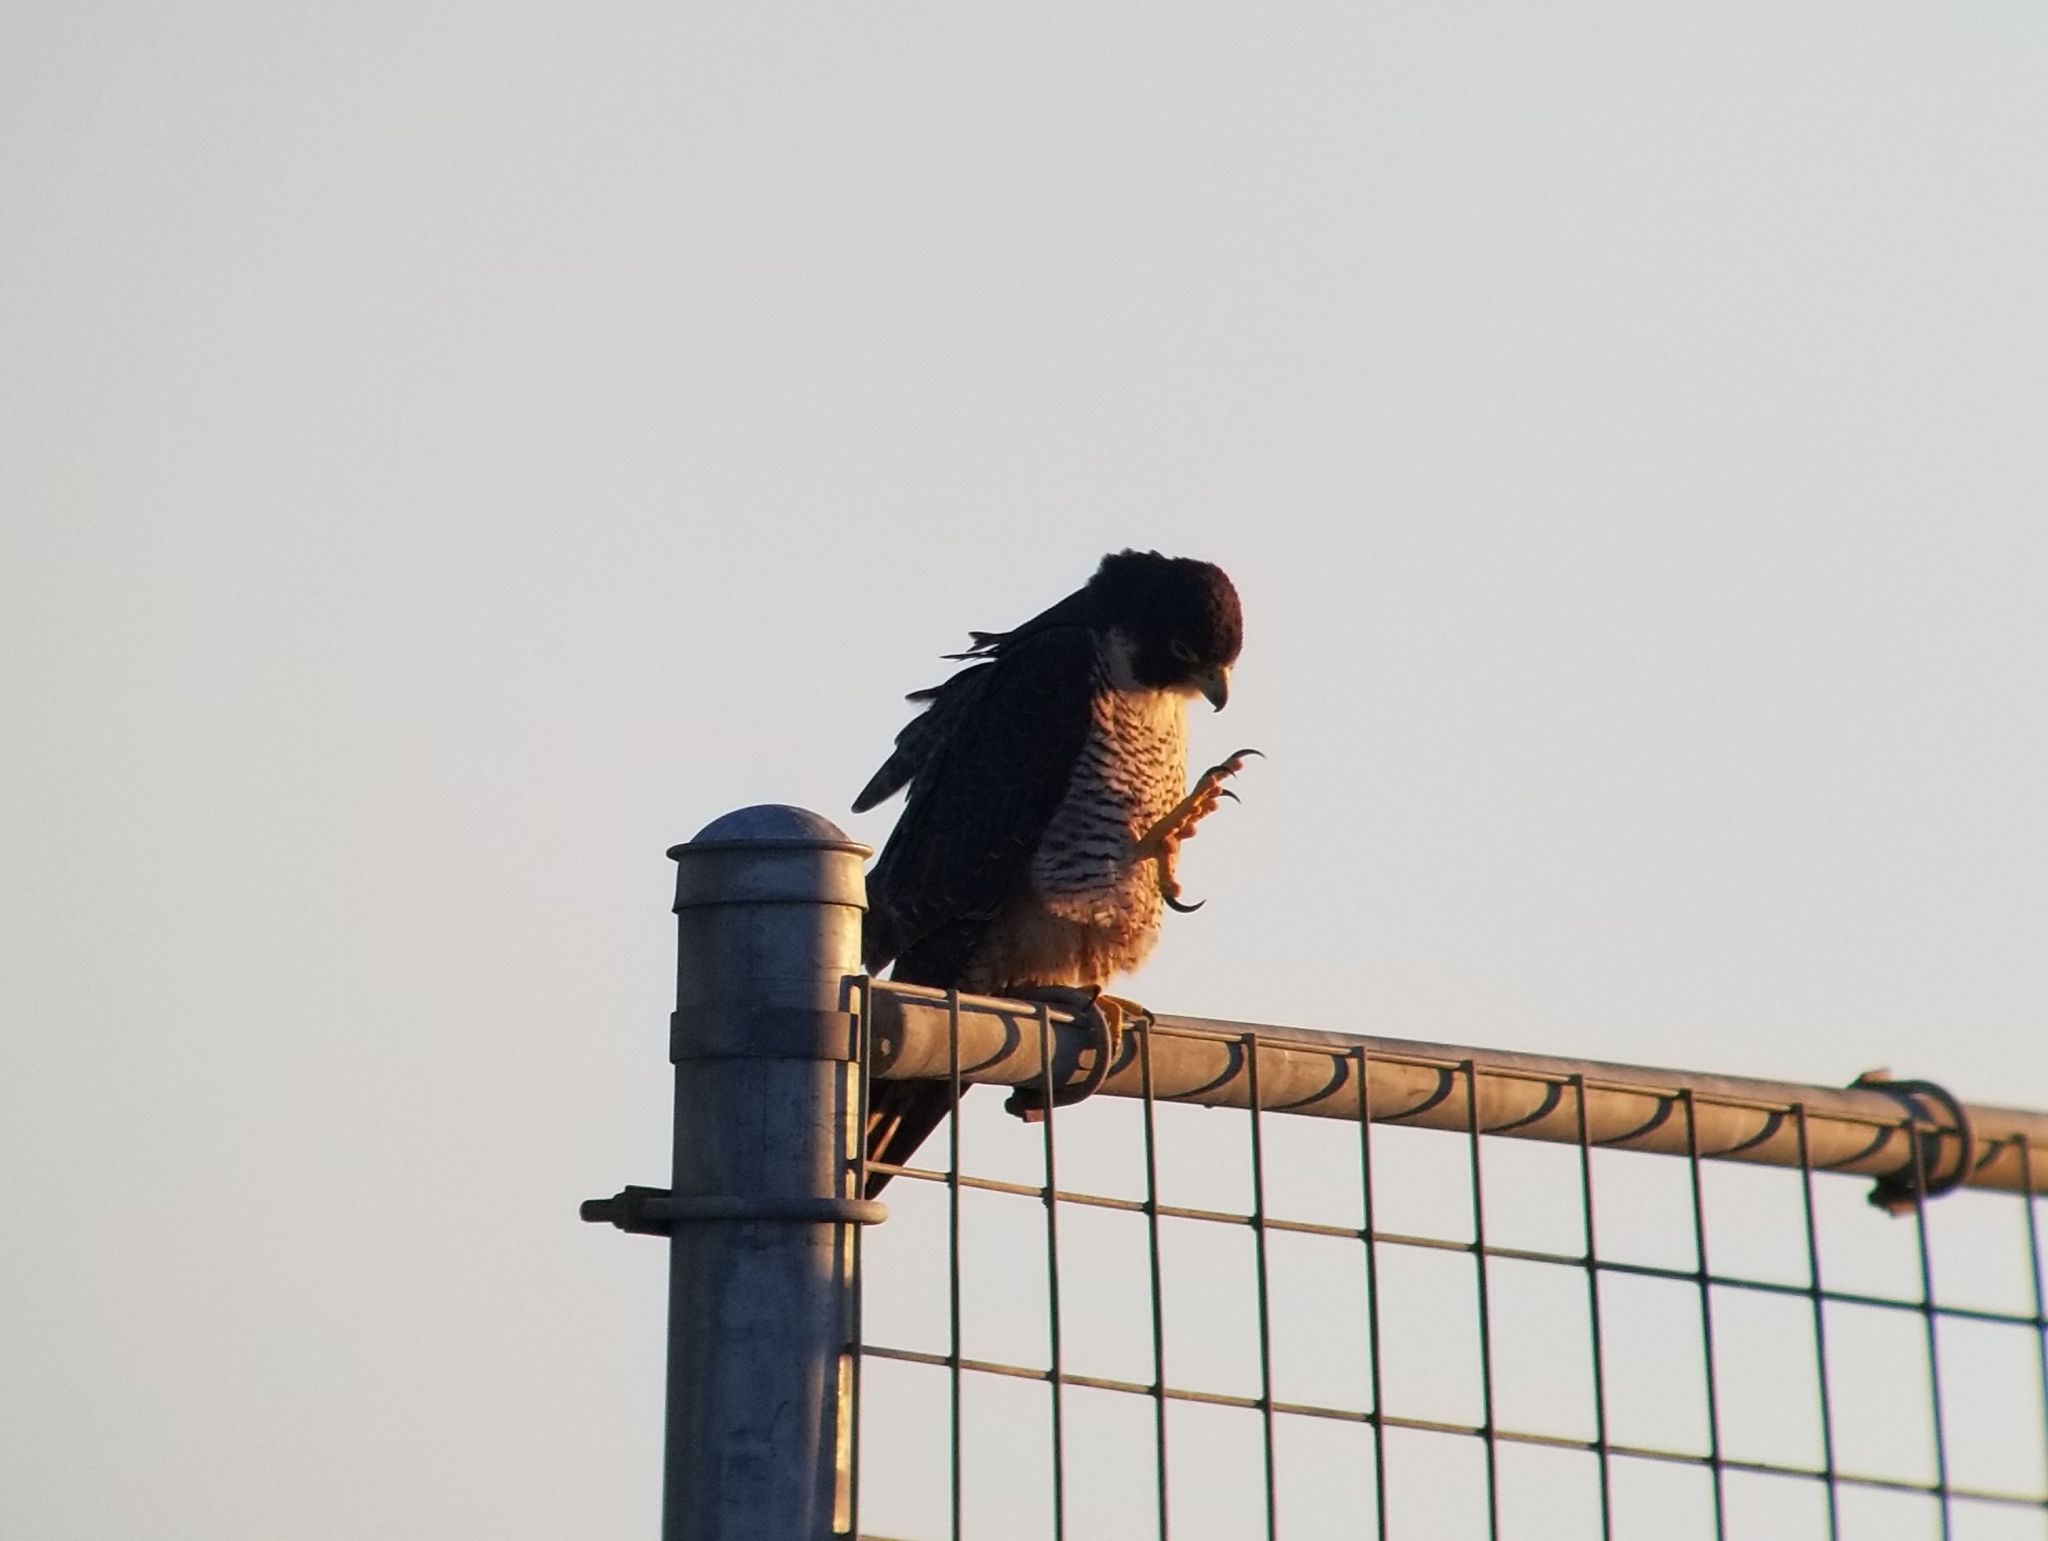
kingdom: Animalia
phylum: Chordata
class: Aves
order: Falconiformes
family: Falconidae
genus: Falco
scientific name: Falco peregrinus
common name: Peregrine falcon
